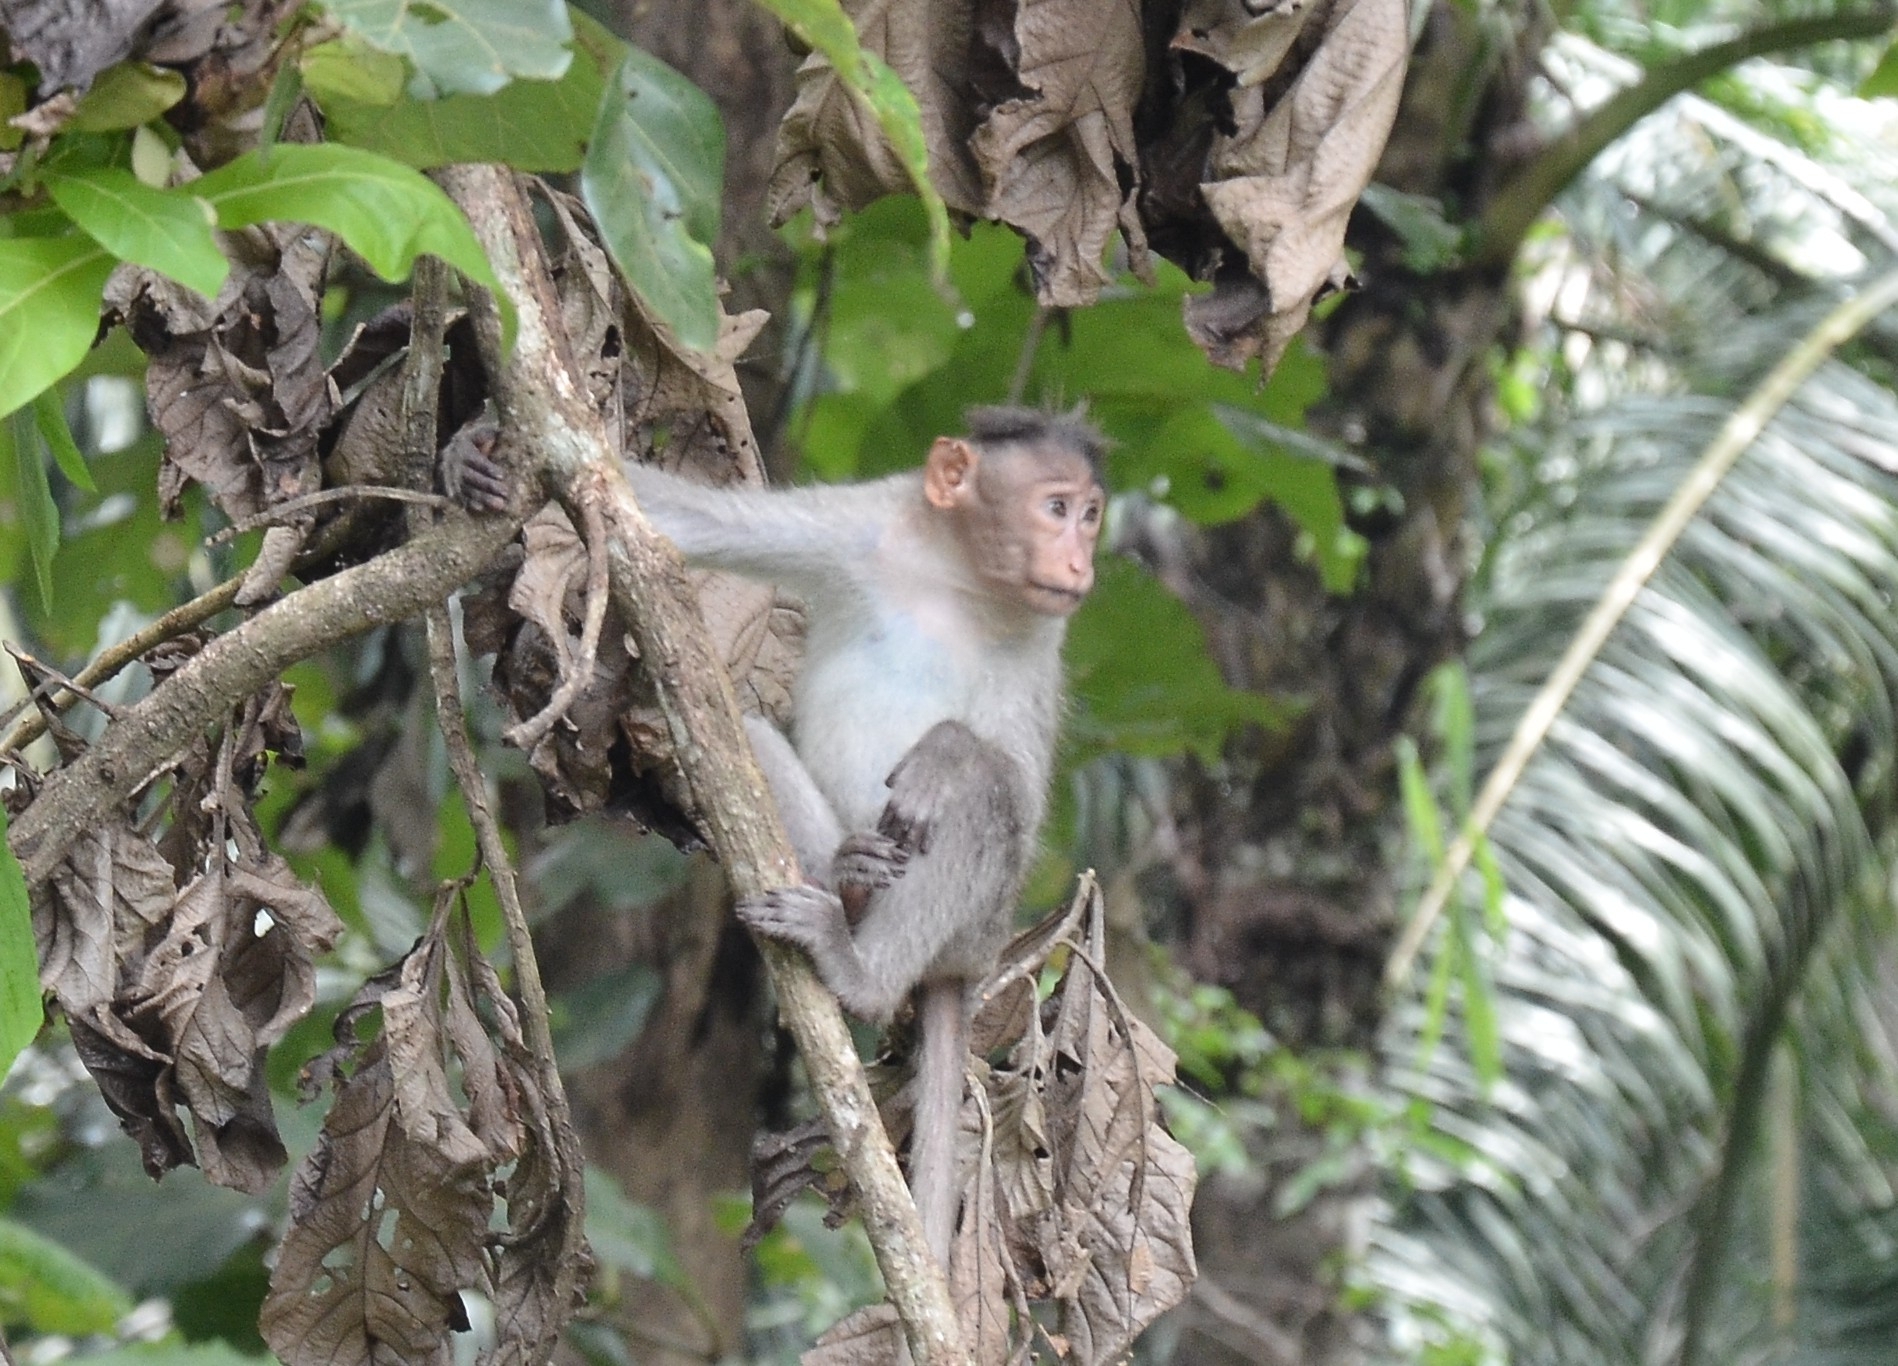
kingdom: Animalia
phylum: Chordata
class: Mammalia
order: Primates
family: Cercopithecidae
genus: Macaca
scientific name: Macaca radiata
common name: Bonnet macaque
